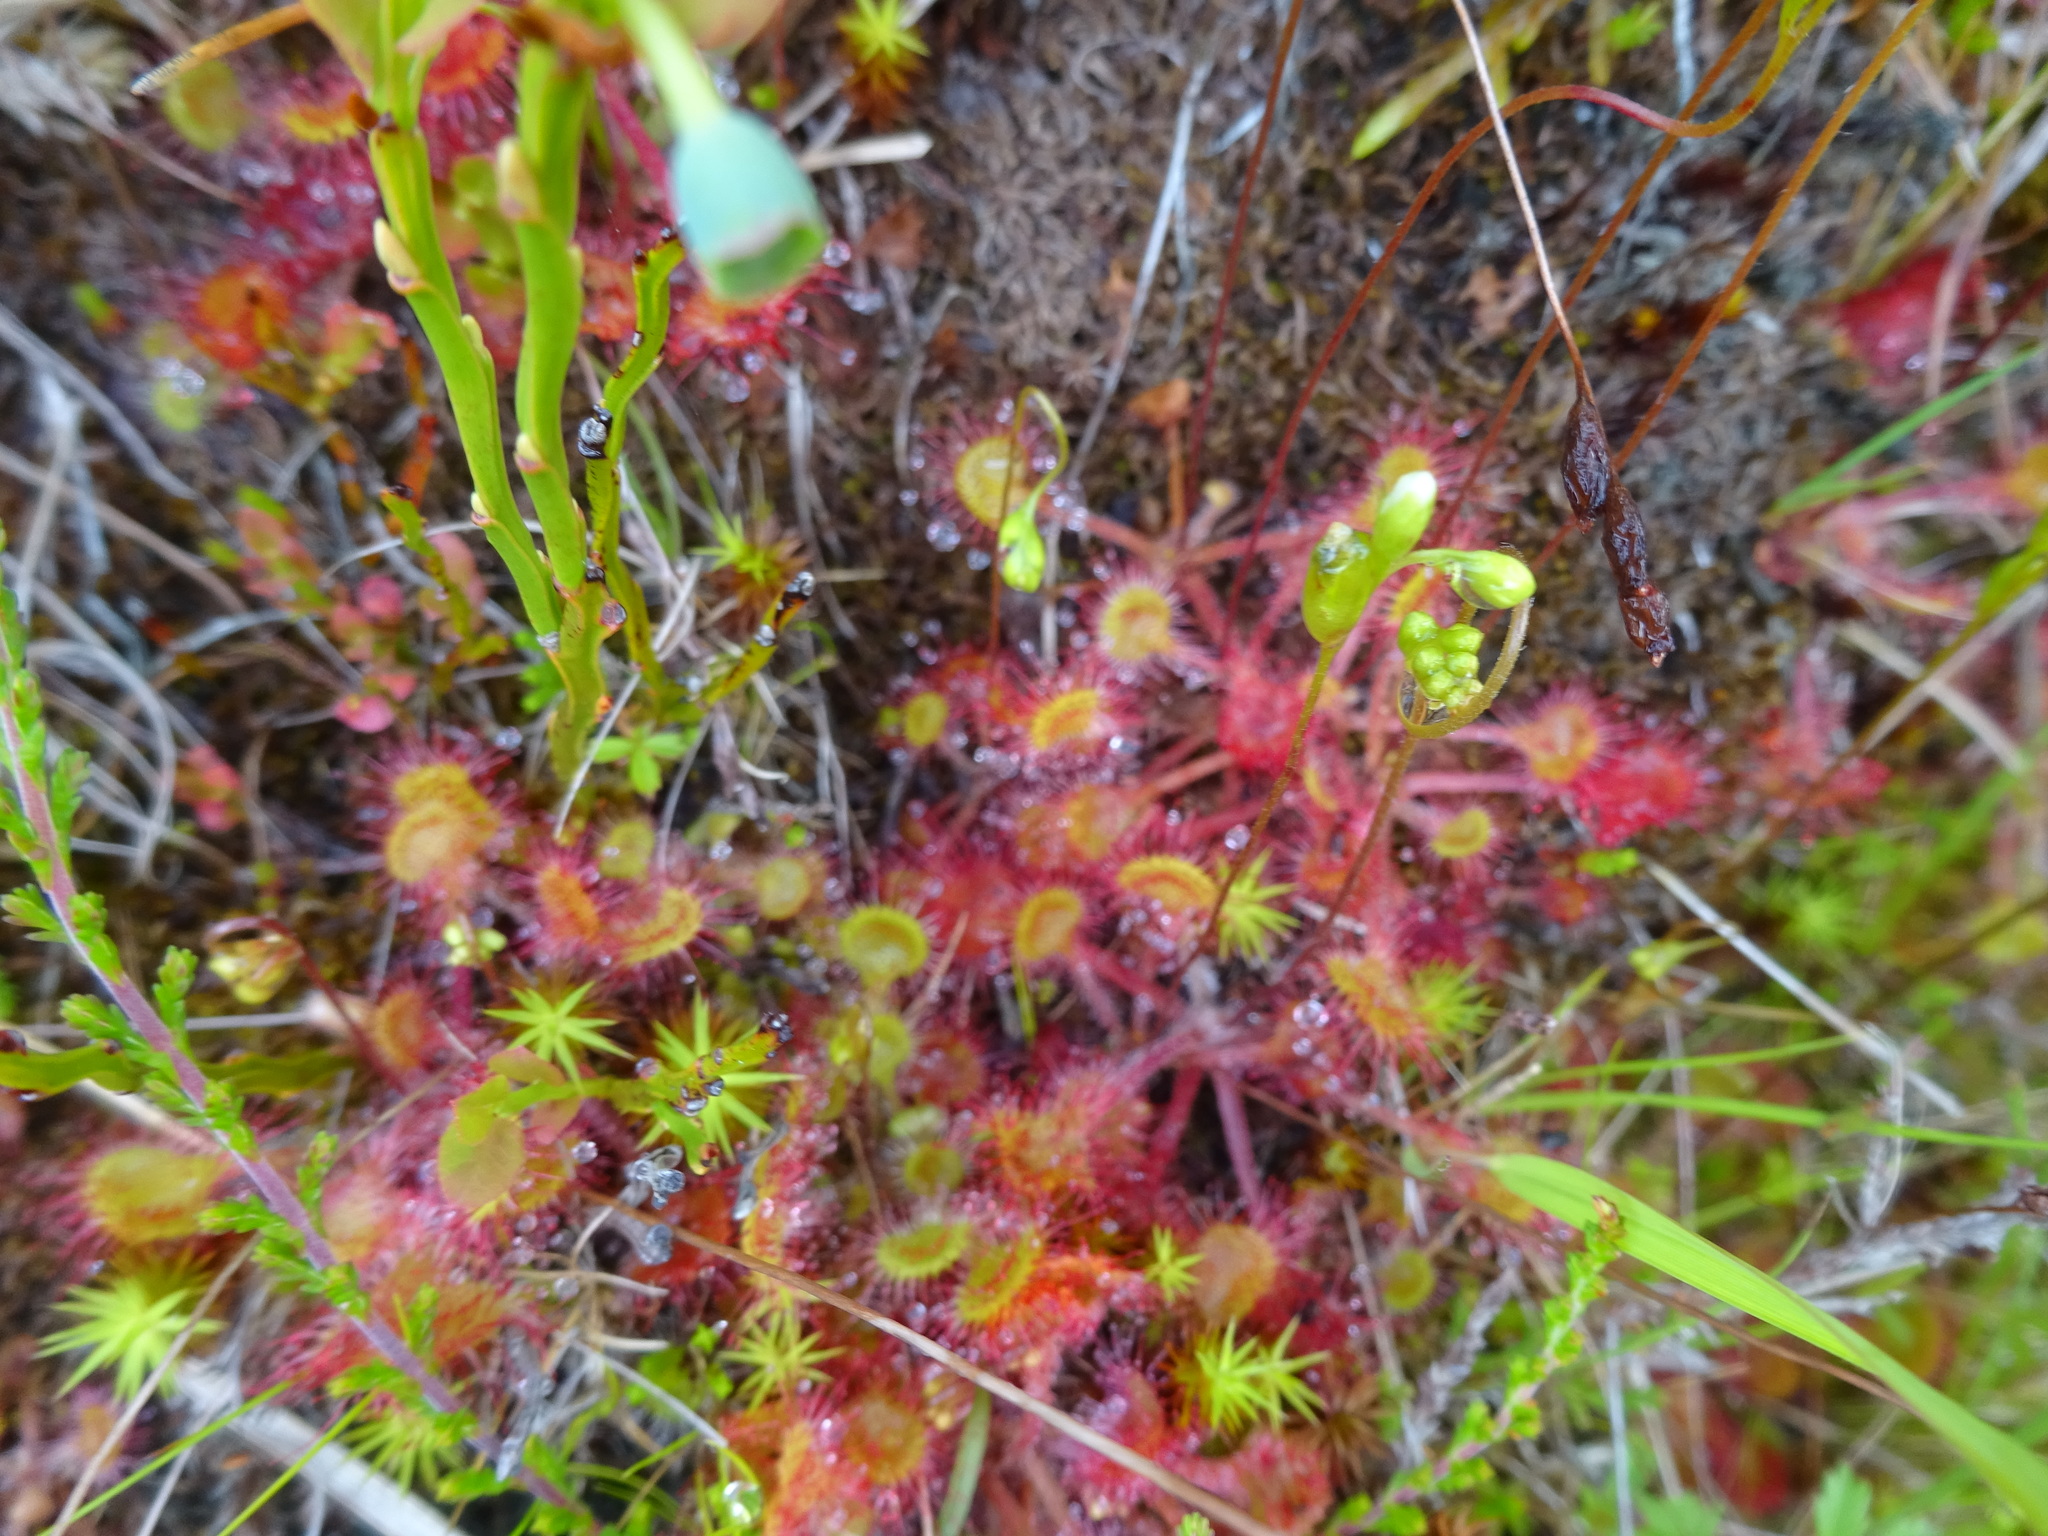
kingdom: Plantae
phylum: Tracheophyta
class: Magnoliopsida
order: Caryophyllales
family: Droseraceae
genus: Drosera
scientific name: Drosera rotundifolia
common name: Round-leaved sundew
